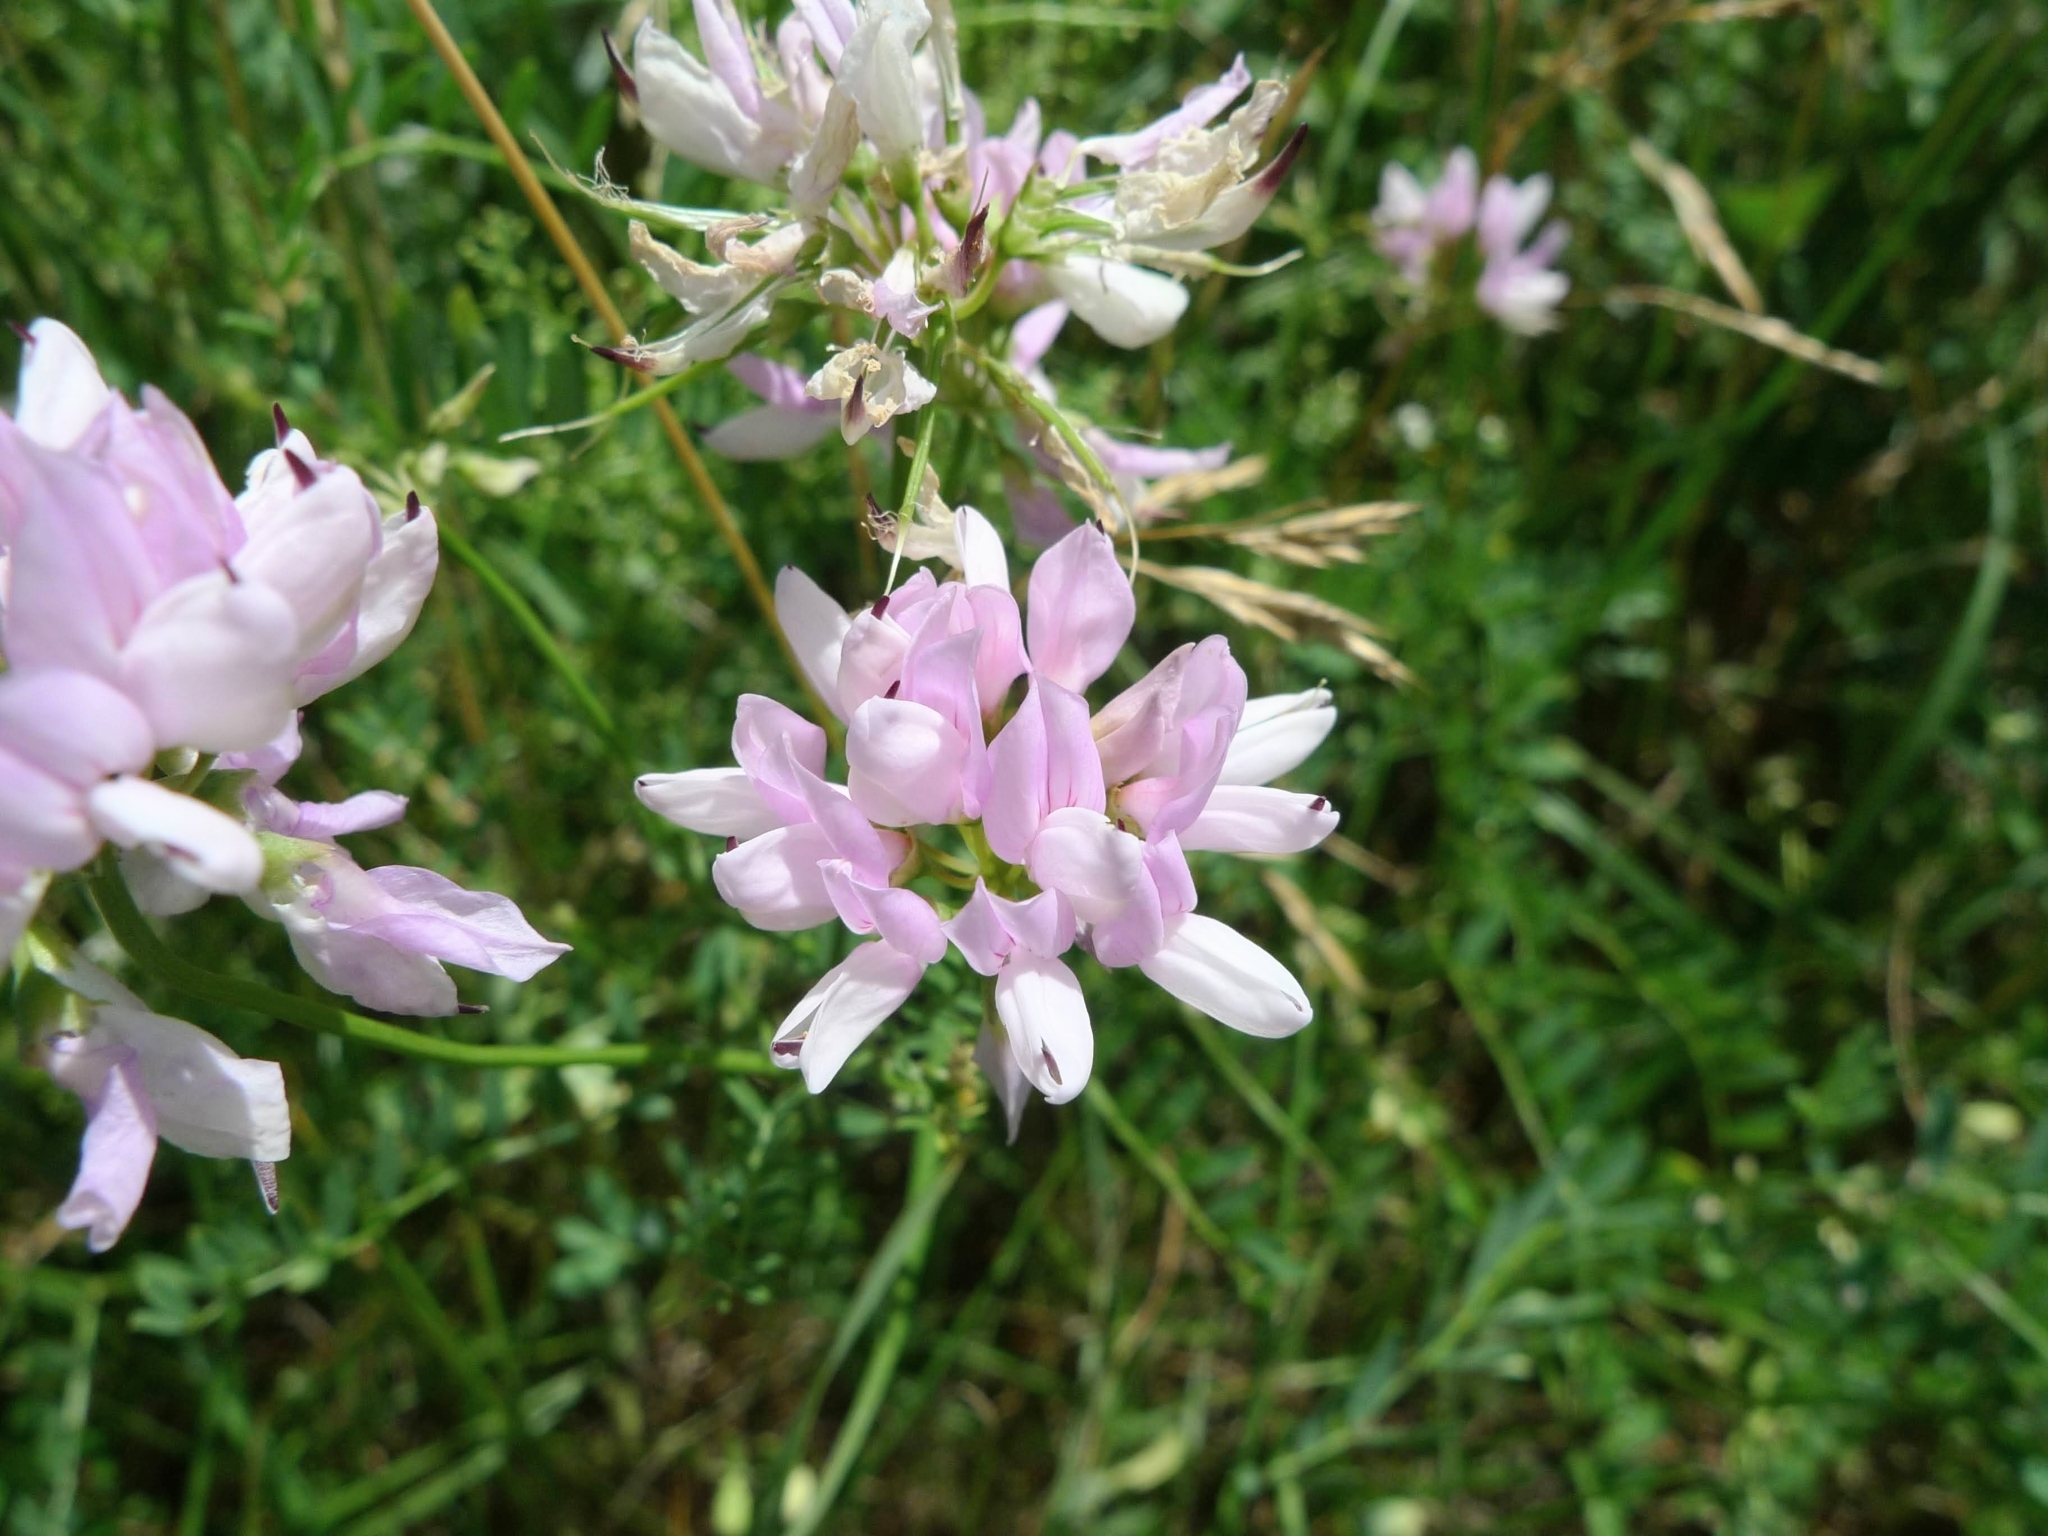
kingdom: Plantae
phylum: Tracheophyta
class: Magnoliopsida
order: Fabales
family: Fabaceae
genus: Coronilla
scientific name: Coronilla varia
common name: Crownvetch
